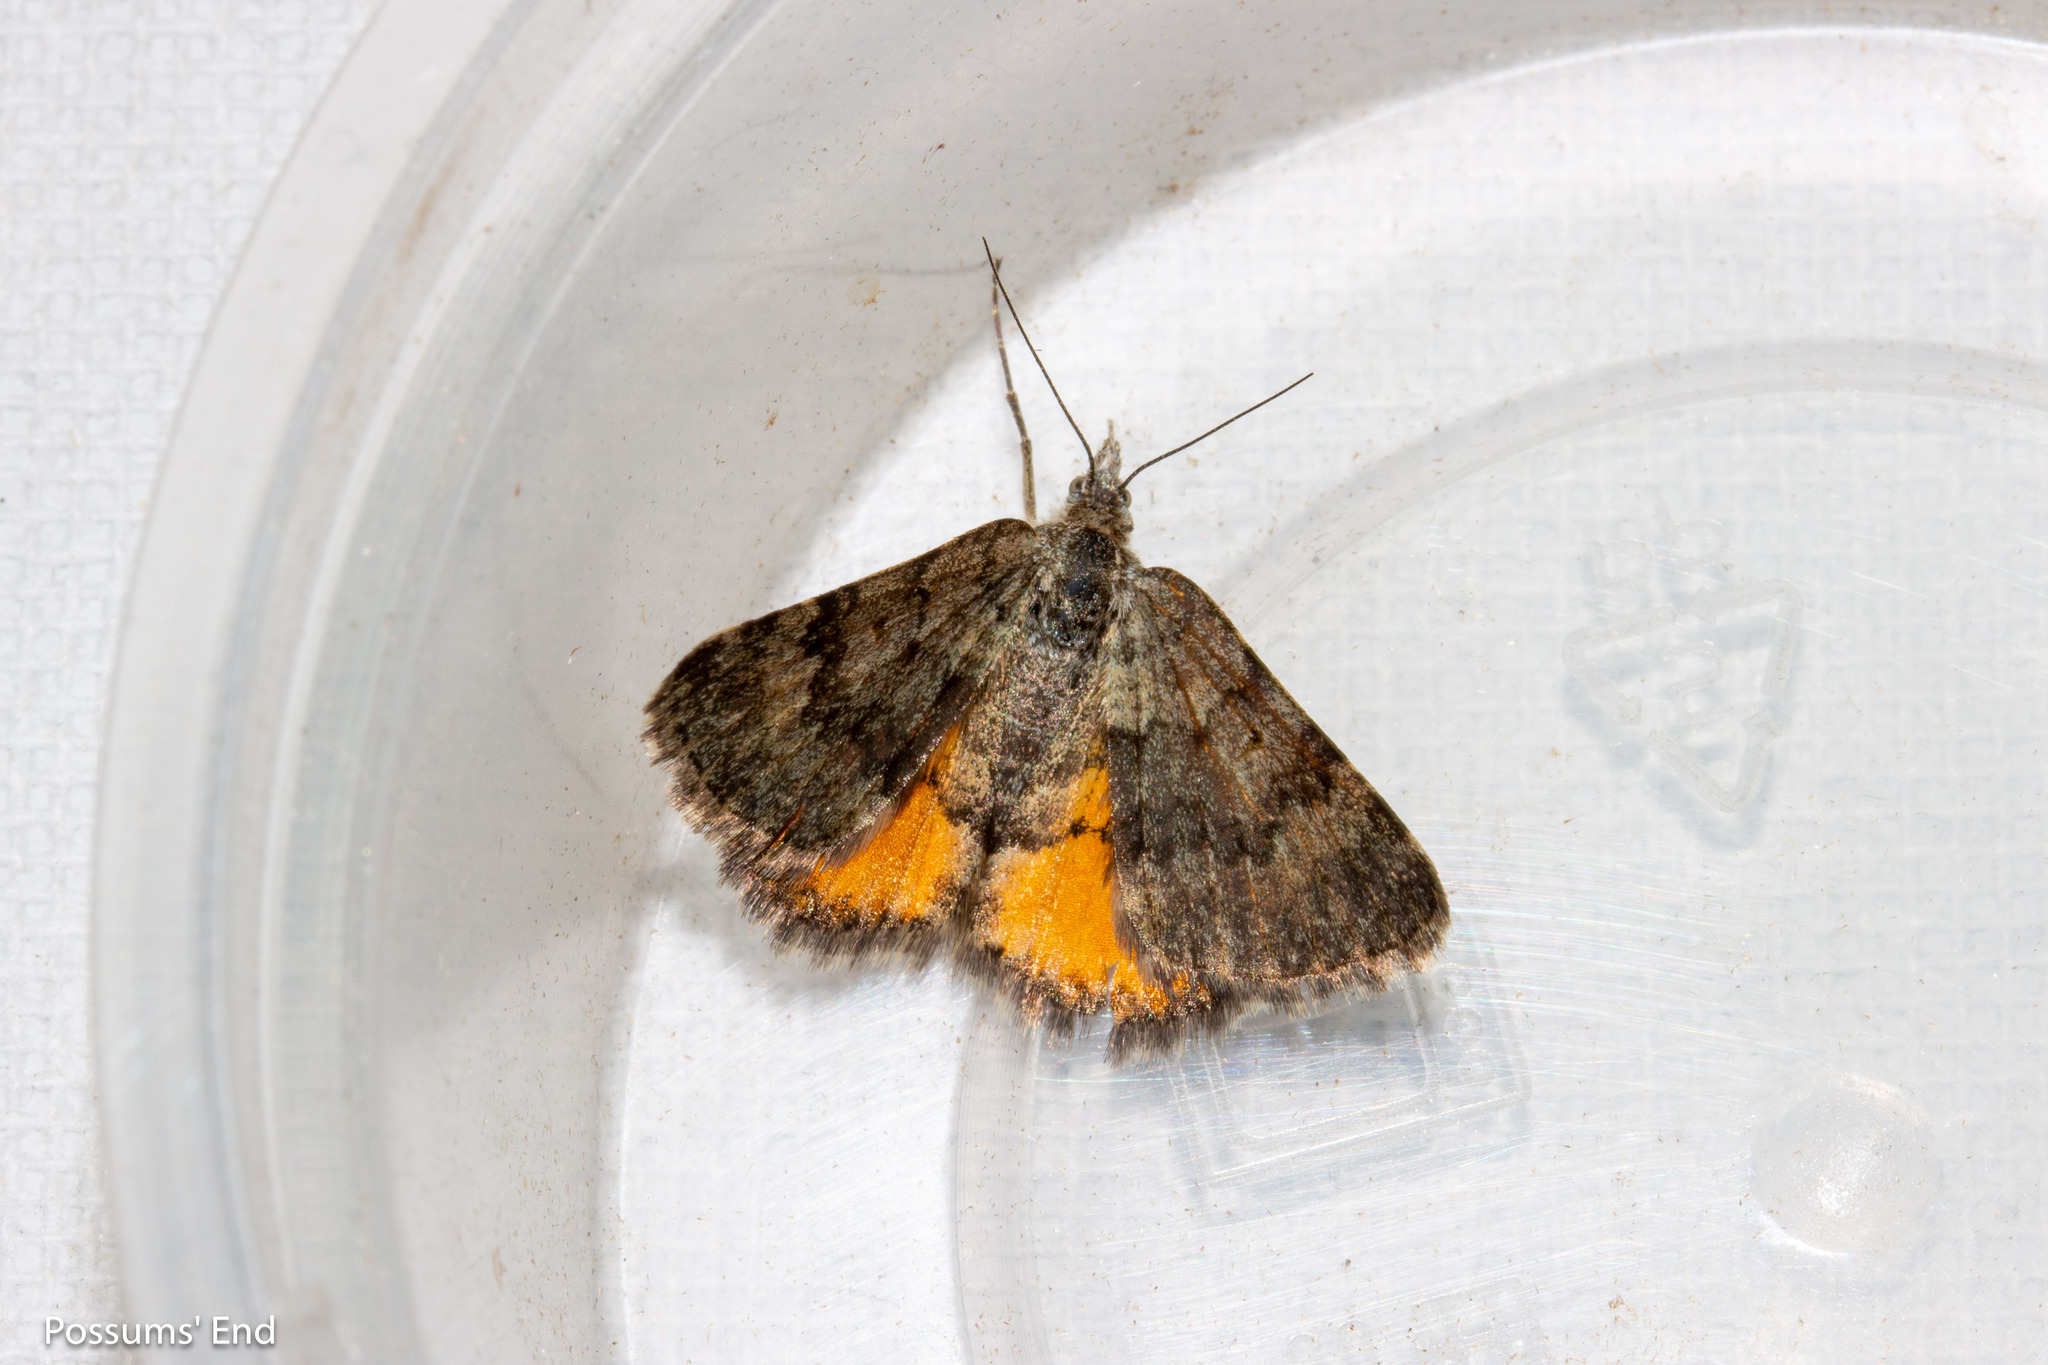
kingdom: Animalia
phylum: Arthropoda
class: Insecta
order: Lepidoptera
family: Geometridae
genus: Paranotoreas
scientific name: Paranotoreas brephosata
